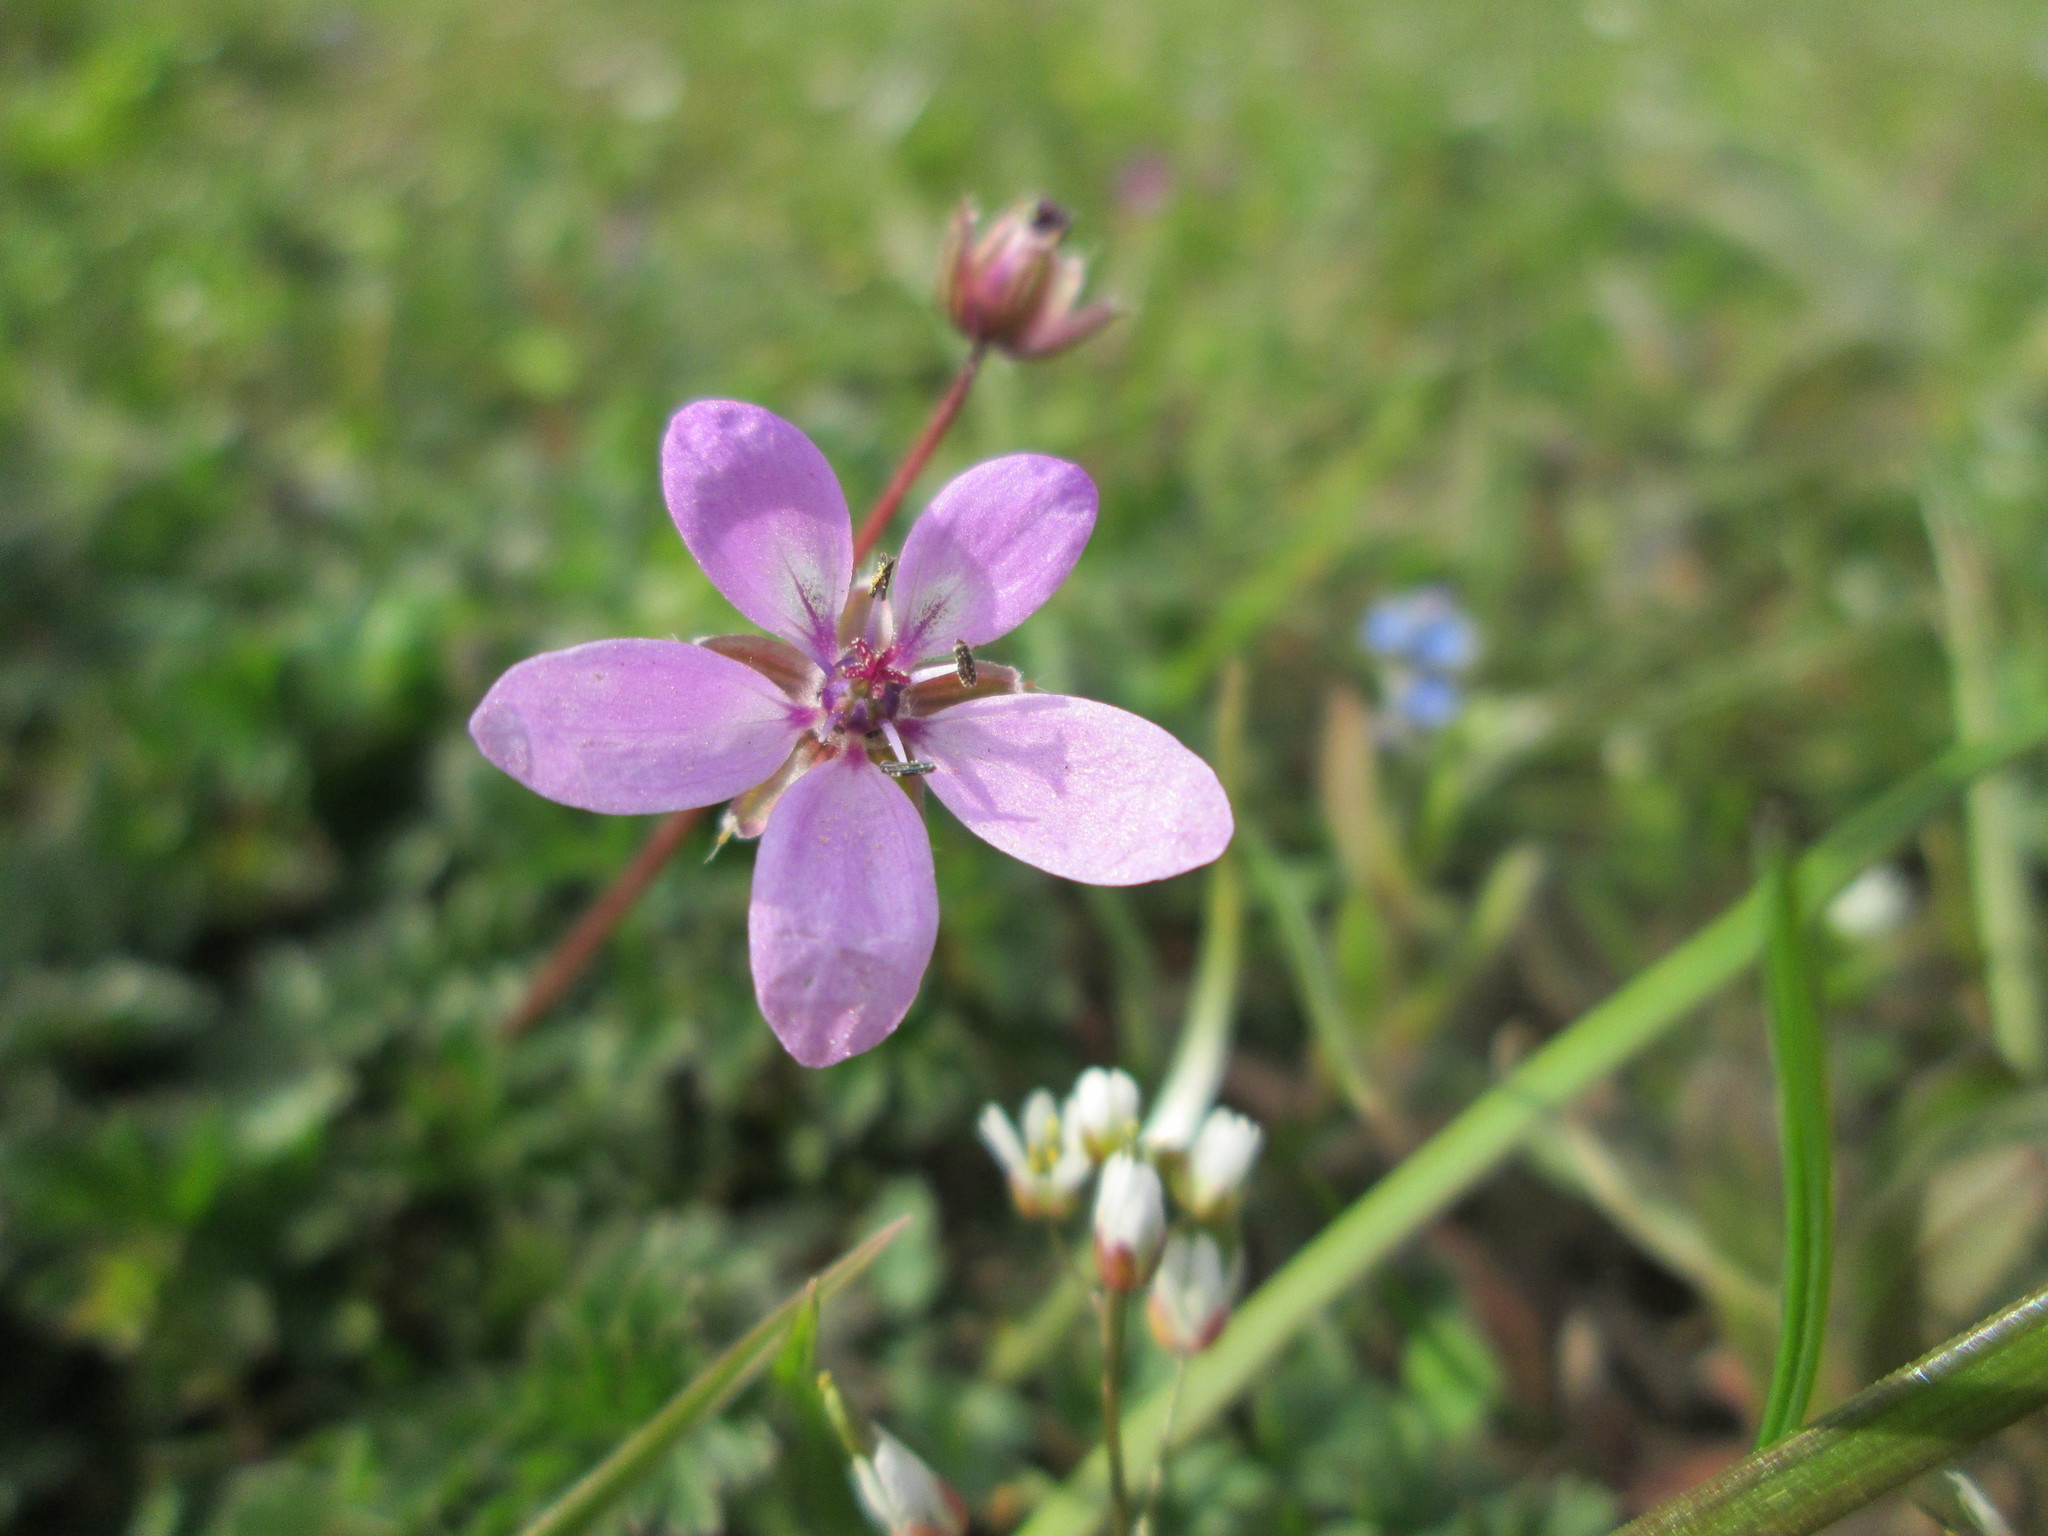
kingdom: Plantae
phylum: Tracheophyta
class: Magnoliopsida
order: Geraniales
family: Geraniaceae
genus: Erodium
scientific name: Erodium cicutarium
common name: Common stork's-bill
